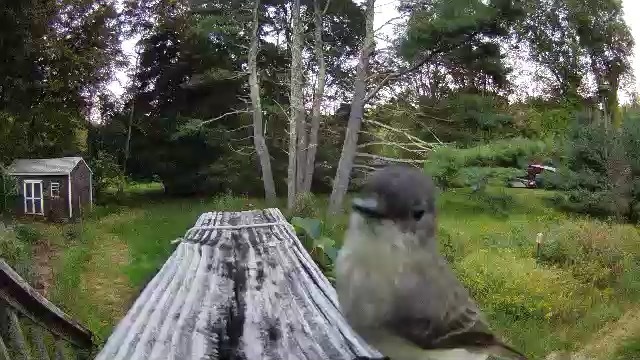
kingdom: Animalia
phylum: Chordata
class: Aves
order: Passeriformes
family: Tyrannidae
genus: Sayornis
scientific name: Sayornis phoebe
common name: Eastern phoebe
